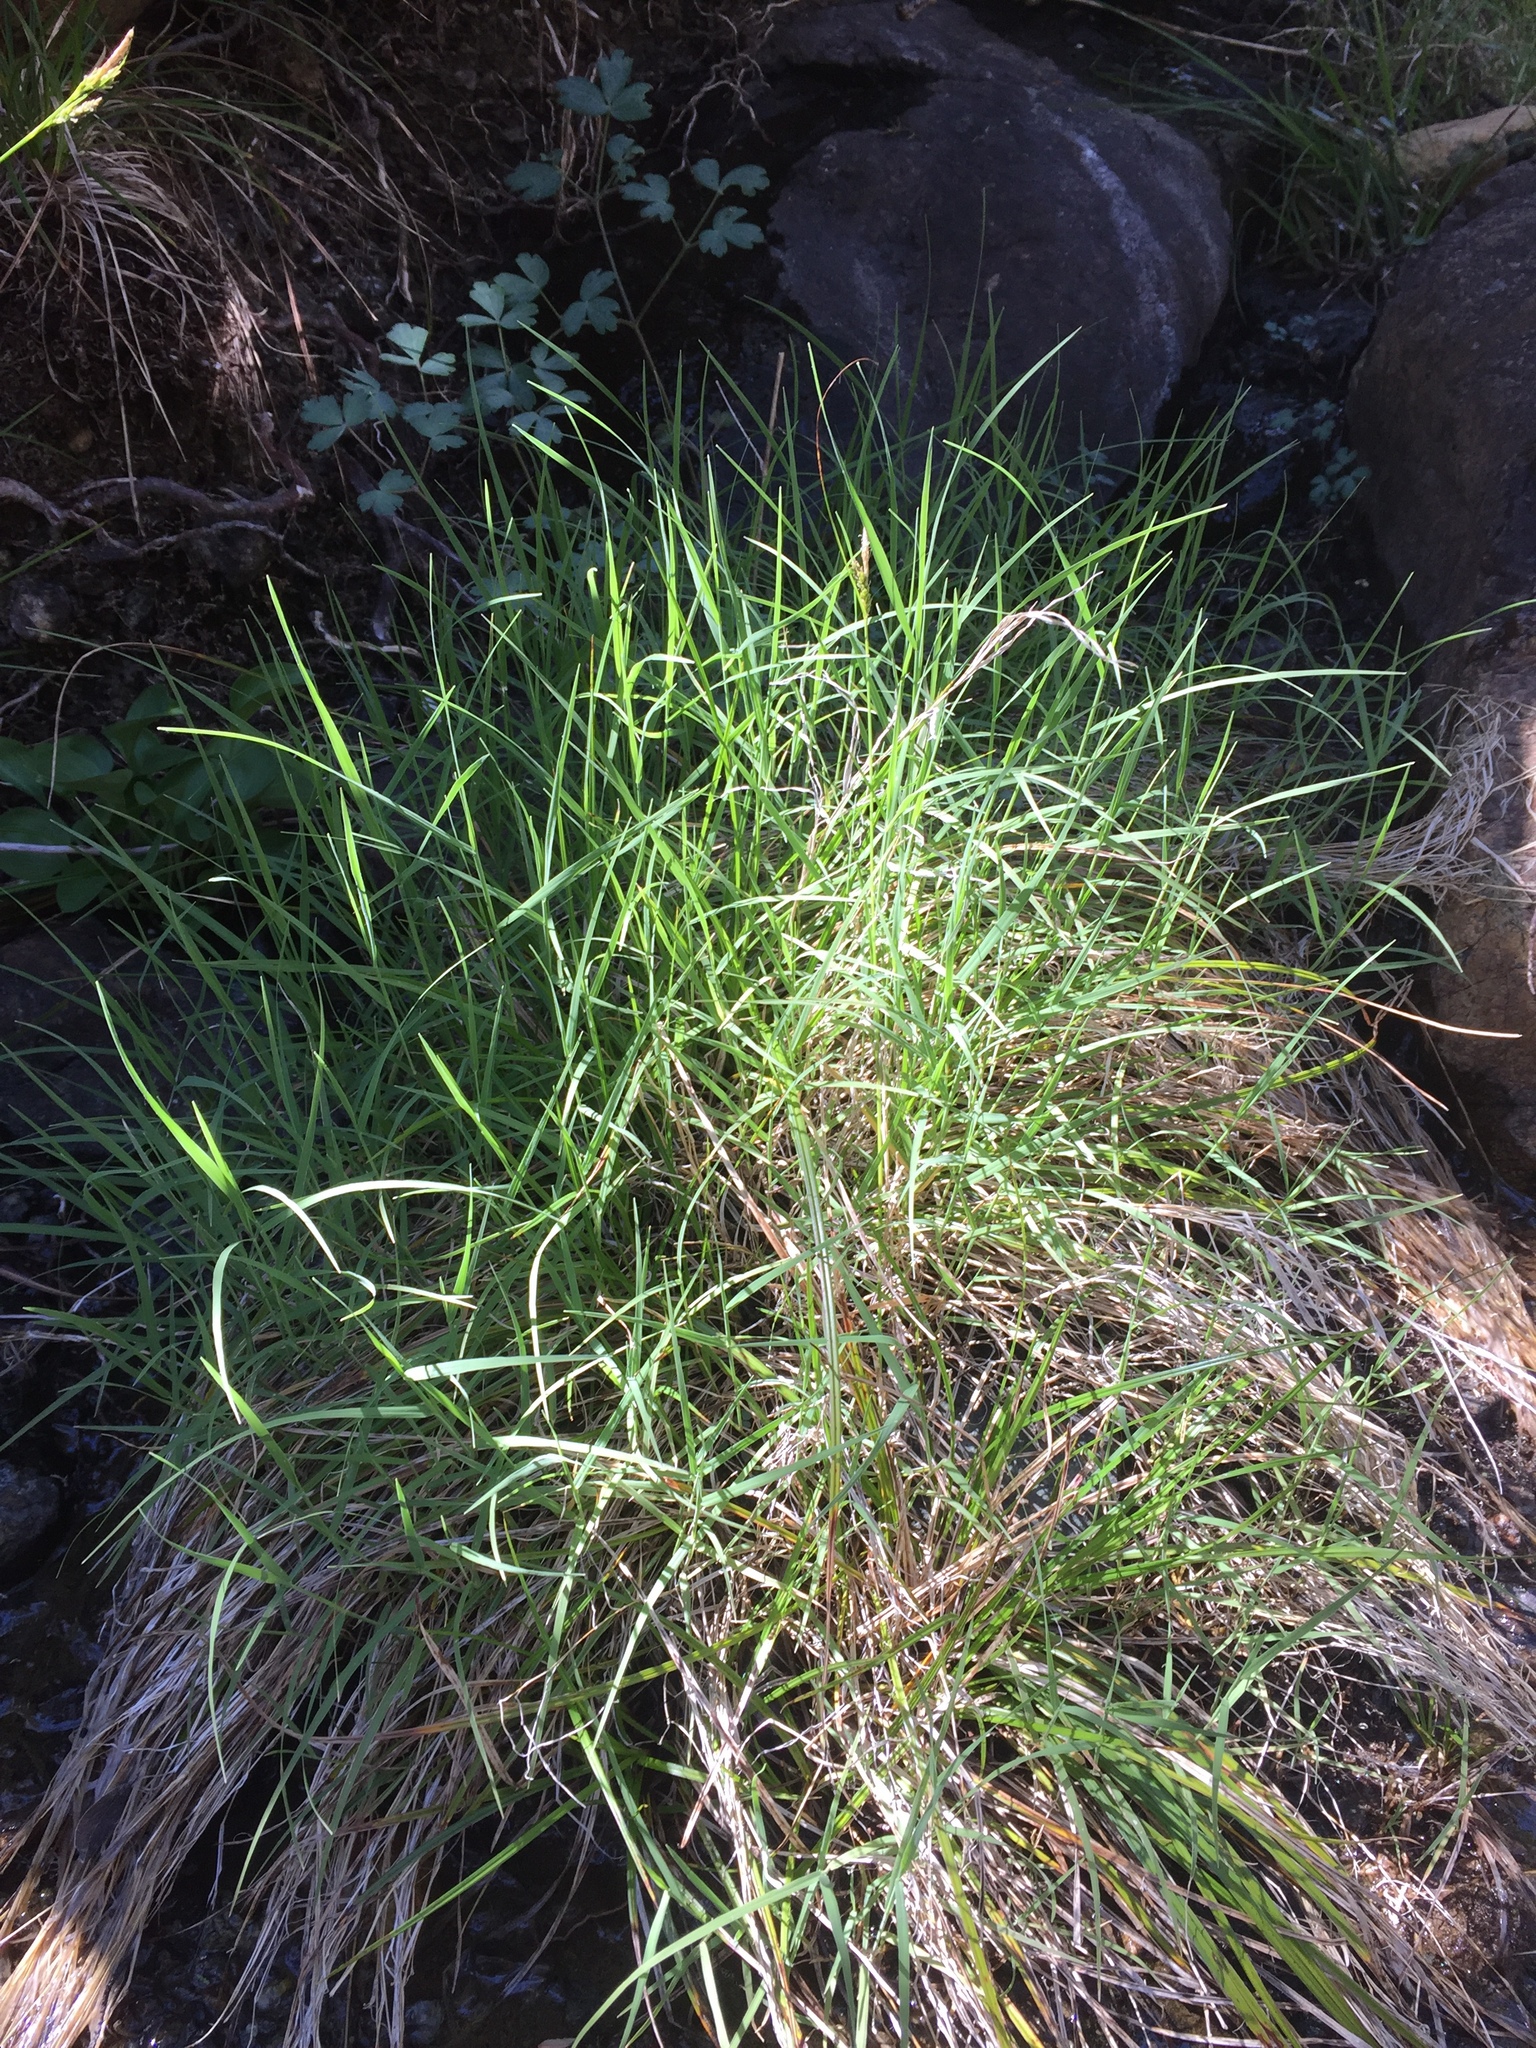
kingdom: Plantae
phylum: Tracheophyta
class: Liliopsida
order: Poales
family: Poaceae
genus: Muhlenbergia
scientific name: Muhlenbergia andina
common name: Foxtail muhly
